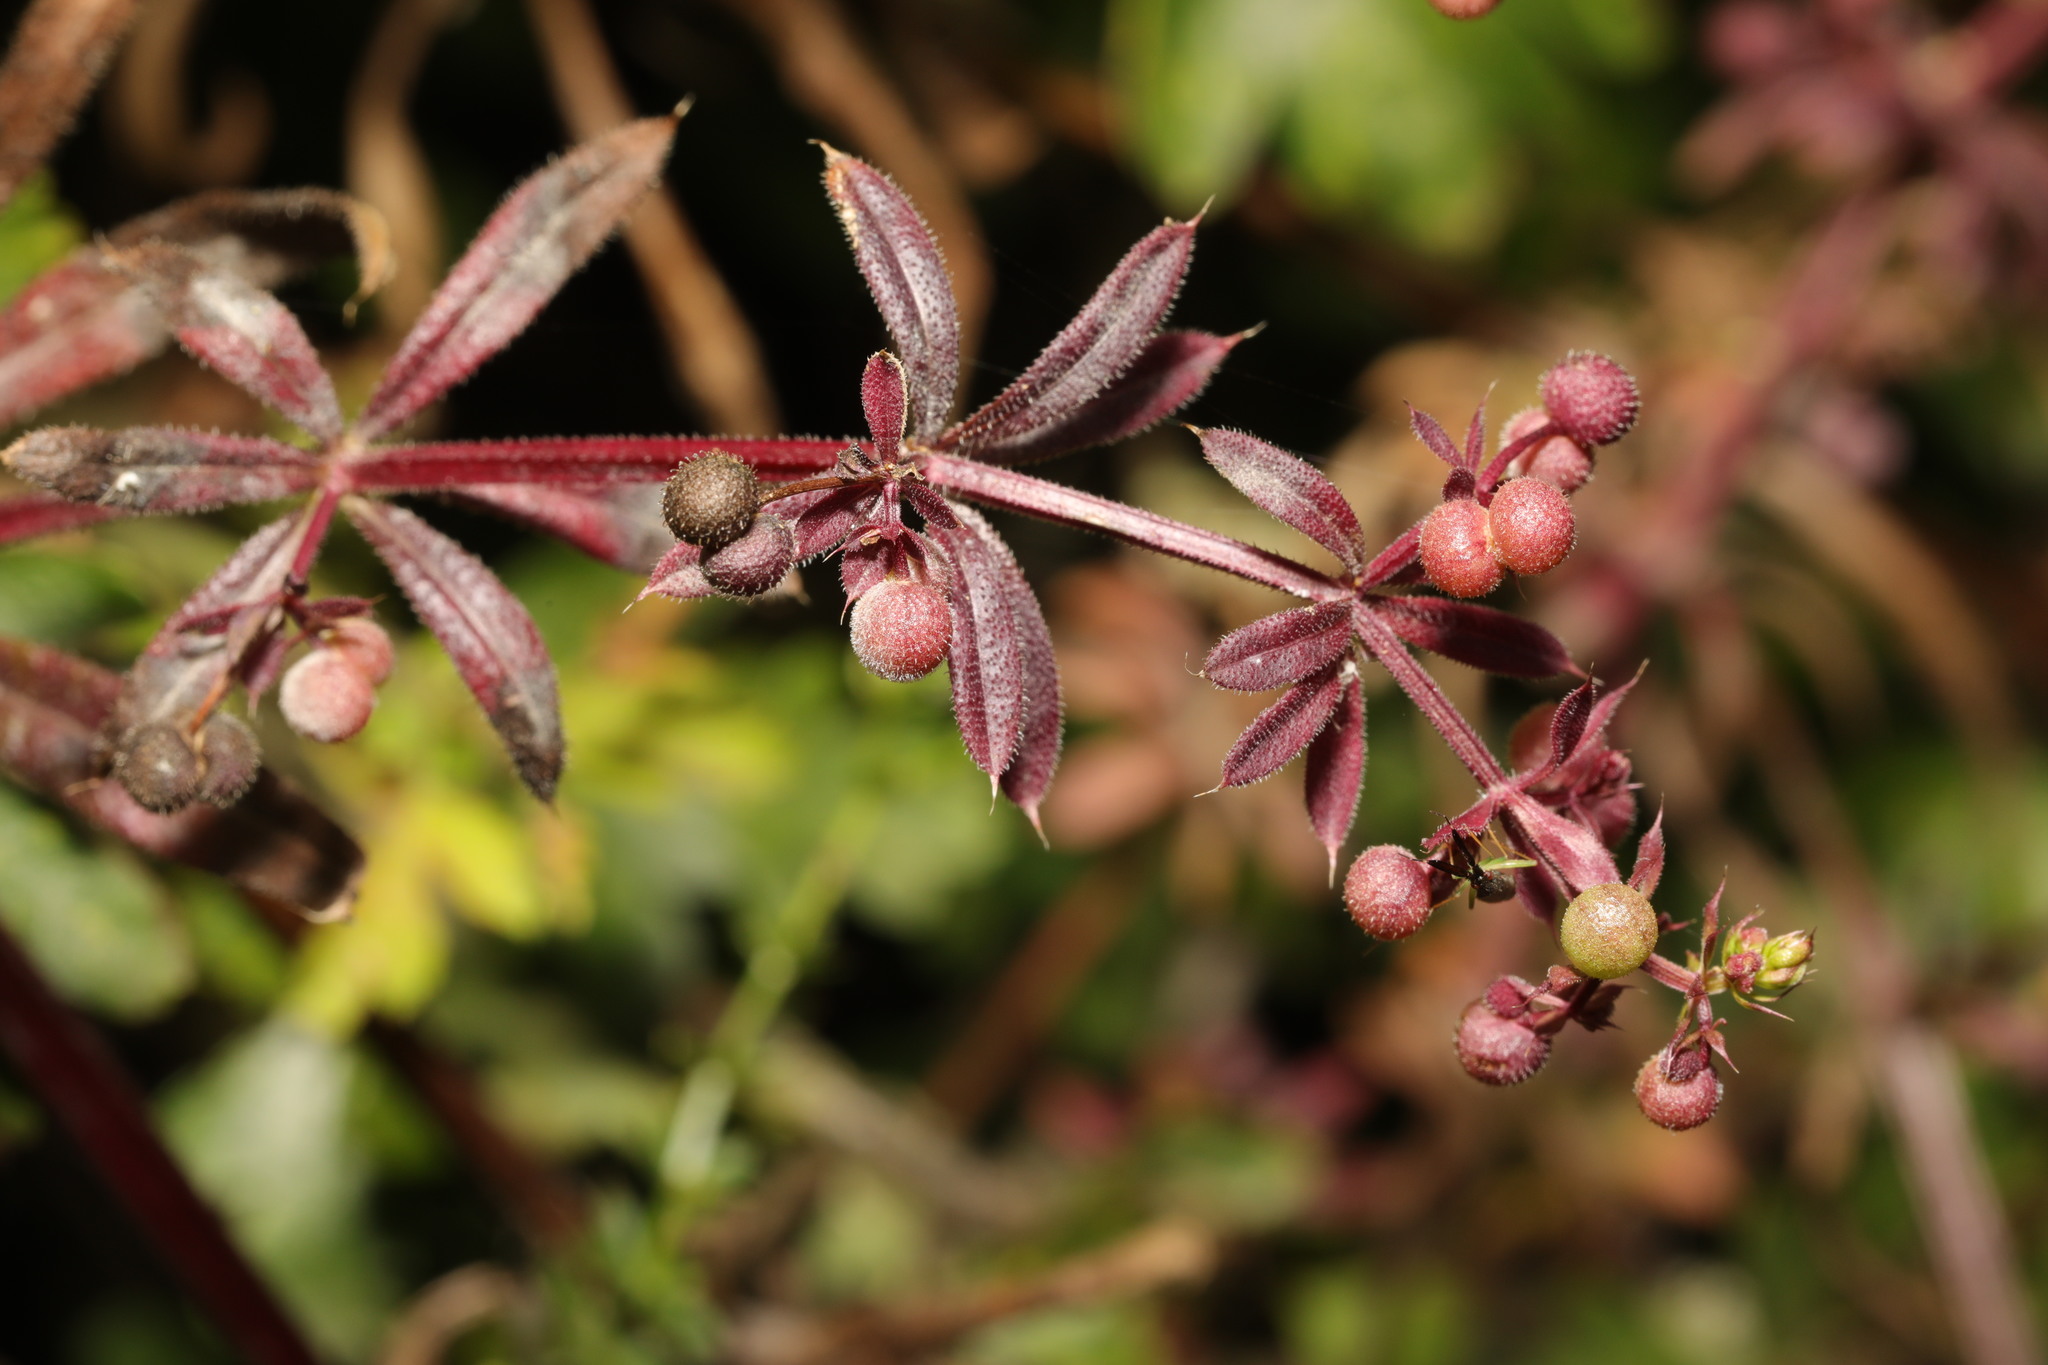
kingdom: Plantae
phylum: Tracheophyta
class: Magnoliopsida
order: Gentianales
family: Rubiaceae
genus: Galium
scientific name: Galium aparine
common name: Cleavers
